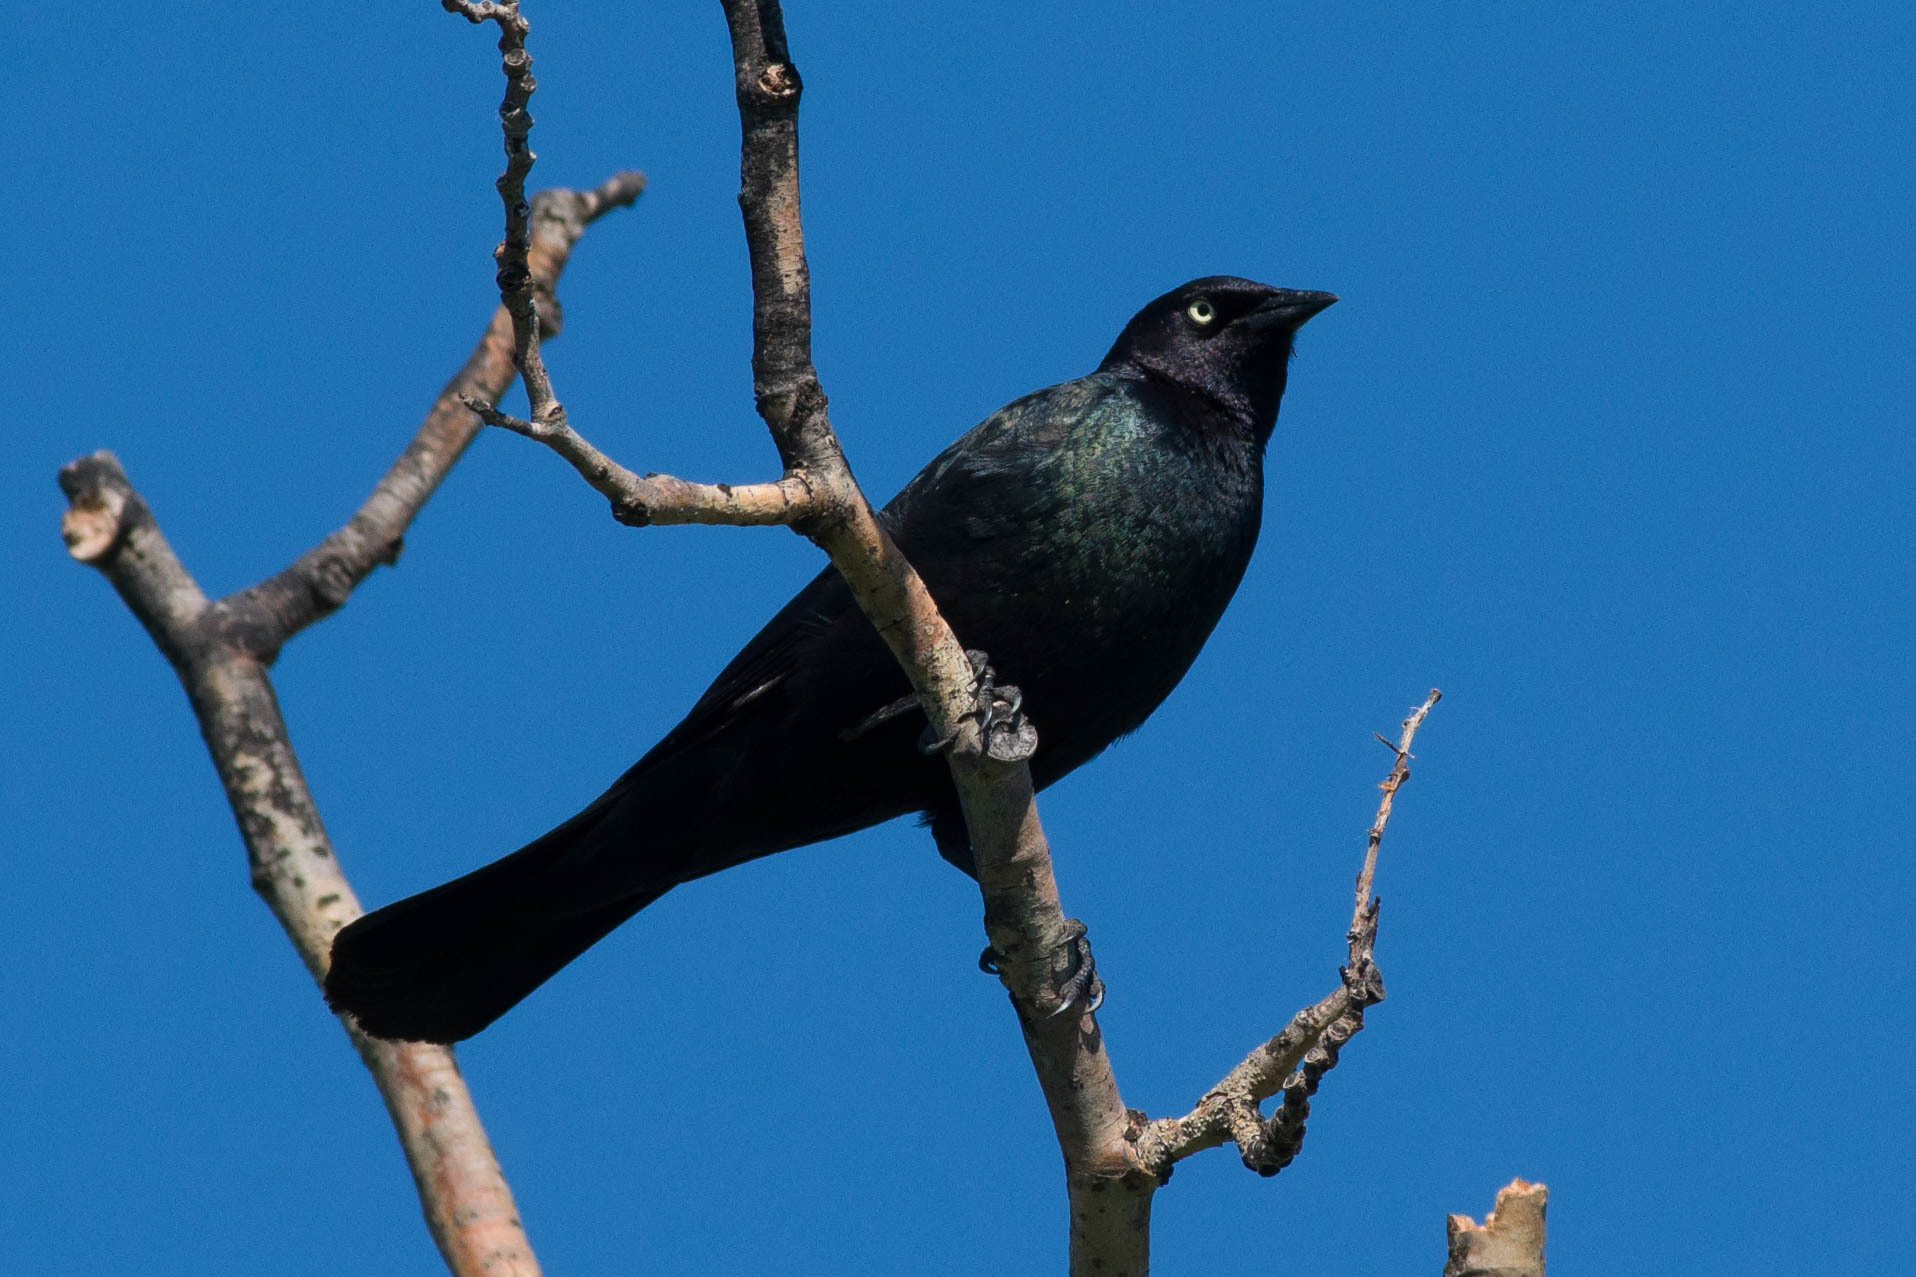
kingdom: Animalia
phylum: Chordata
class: Aves
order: Passeriformes
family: Icteridae
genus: Euphagus
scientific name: Euphagus cyanocephalus
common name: Brewer's blackbird
